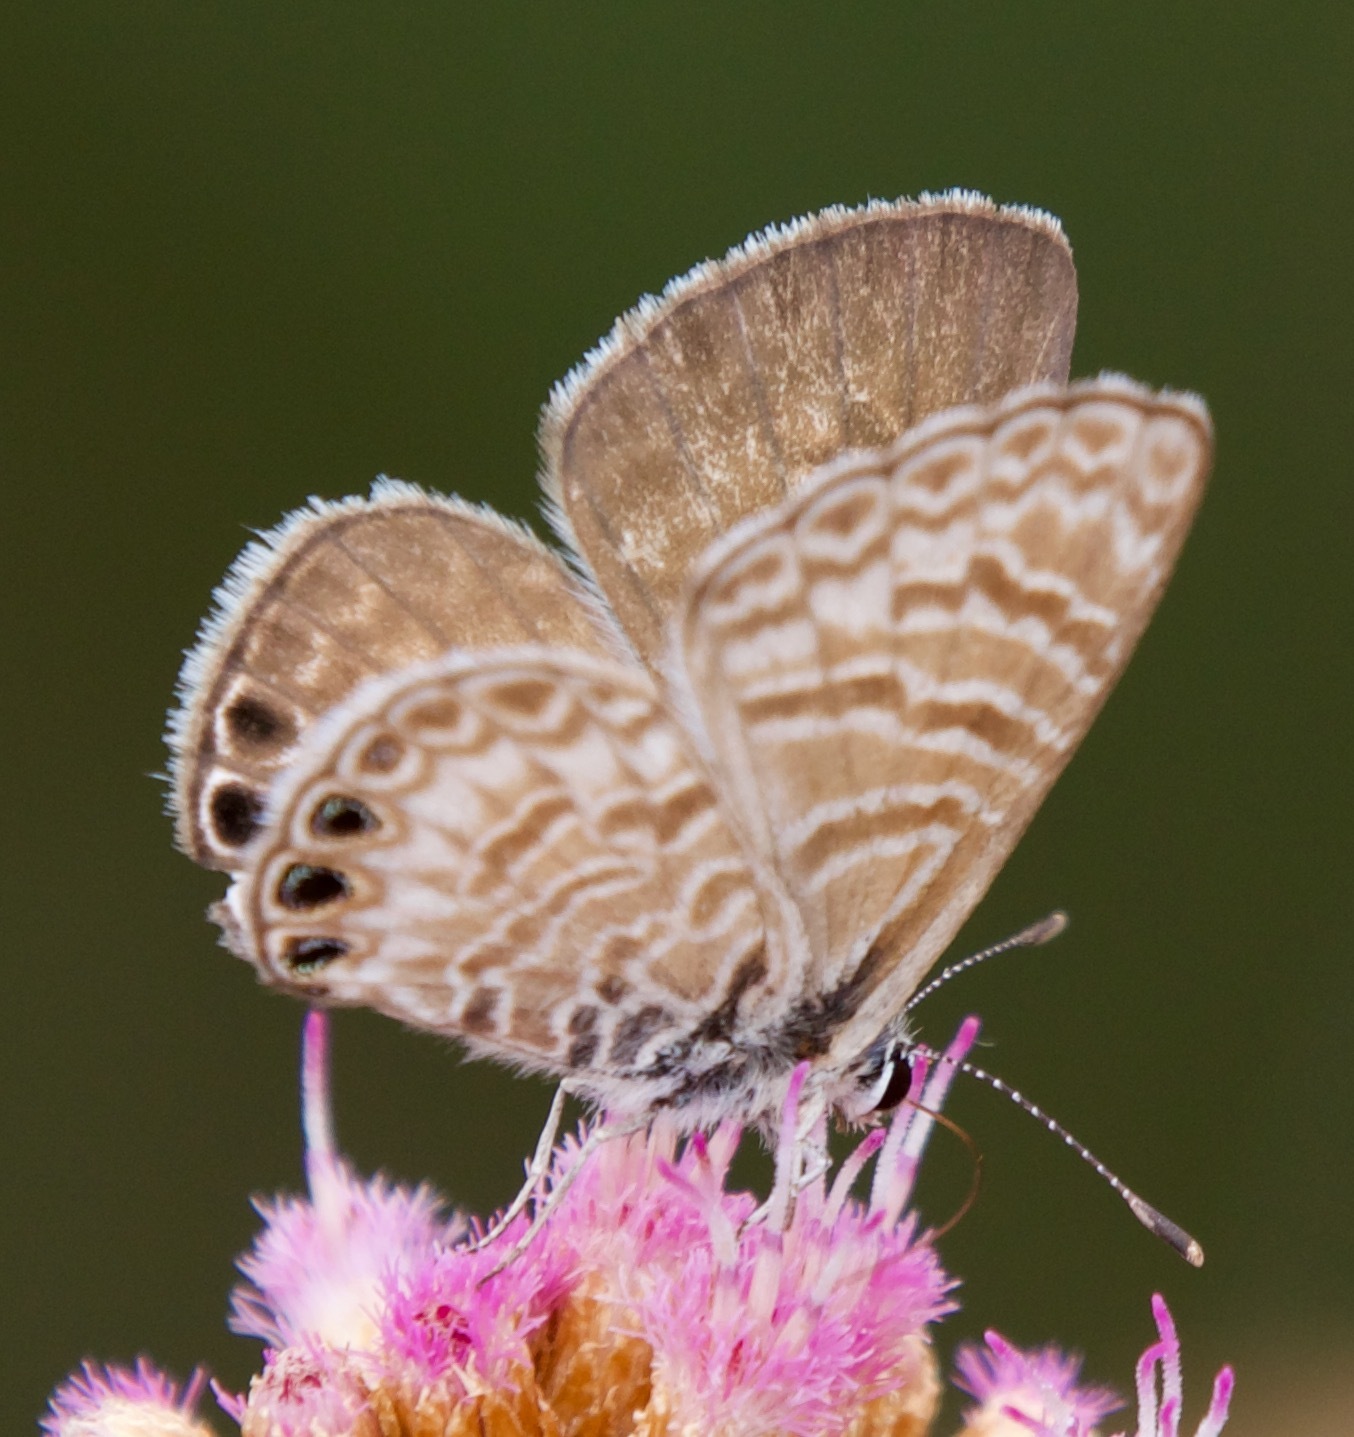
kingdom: Animalia
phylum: Arthropoda
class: Insecta
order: Lepidoptera
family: Lycaenidae
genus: Leptotes
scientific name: Leptotes trigemmatus
